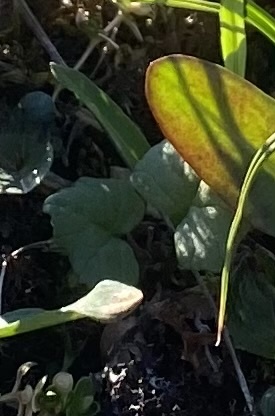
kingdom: Plantae
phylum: Tracheophyta
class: Magnoliopsida
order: Asterales
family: Asteraceae
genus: Endocellion
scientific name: Endocellion glaciale
